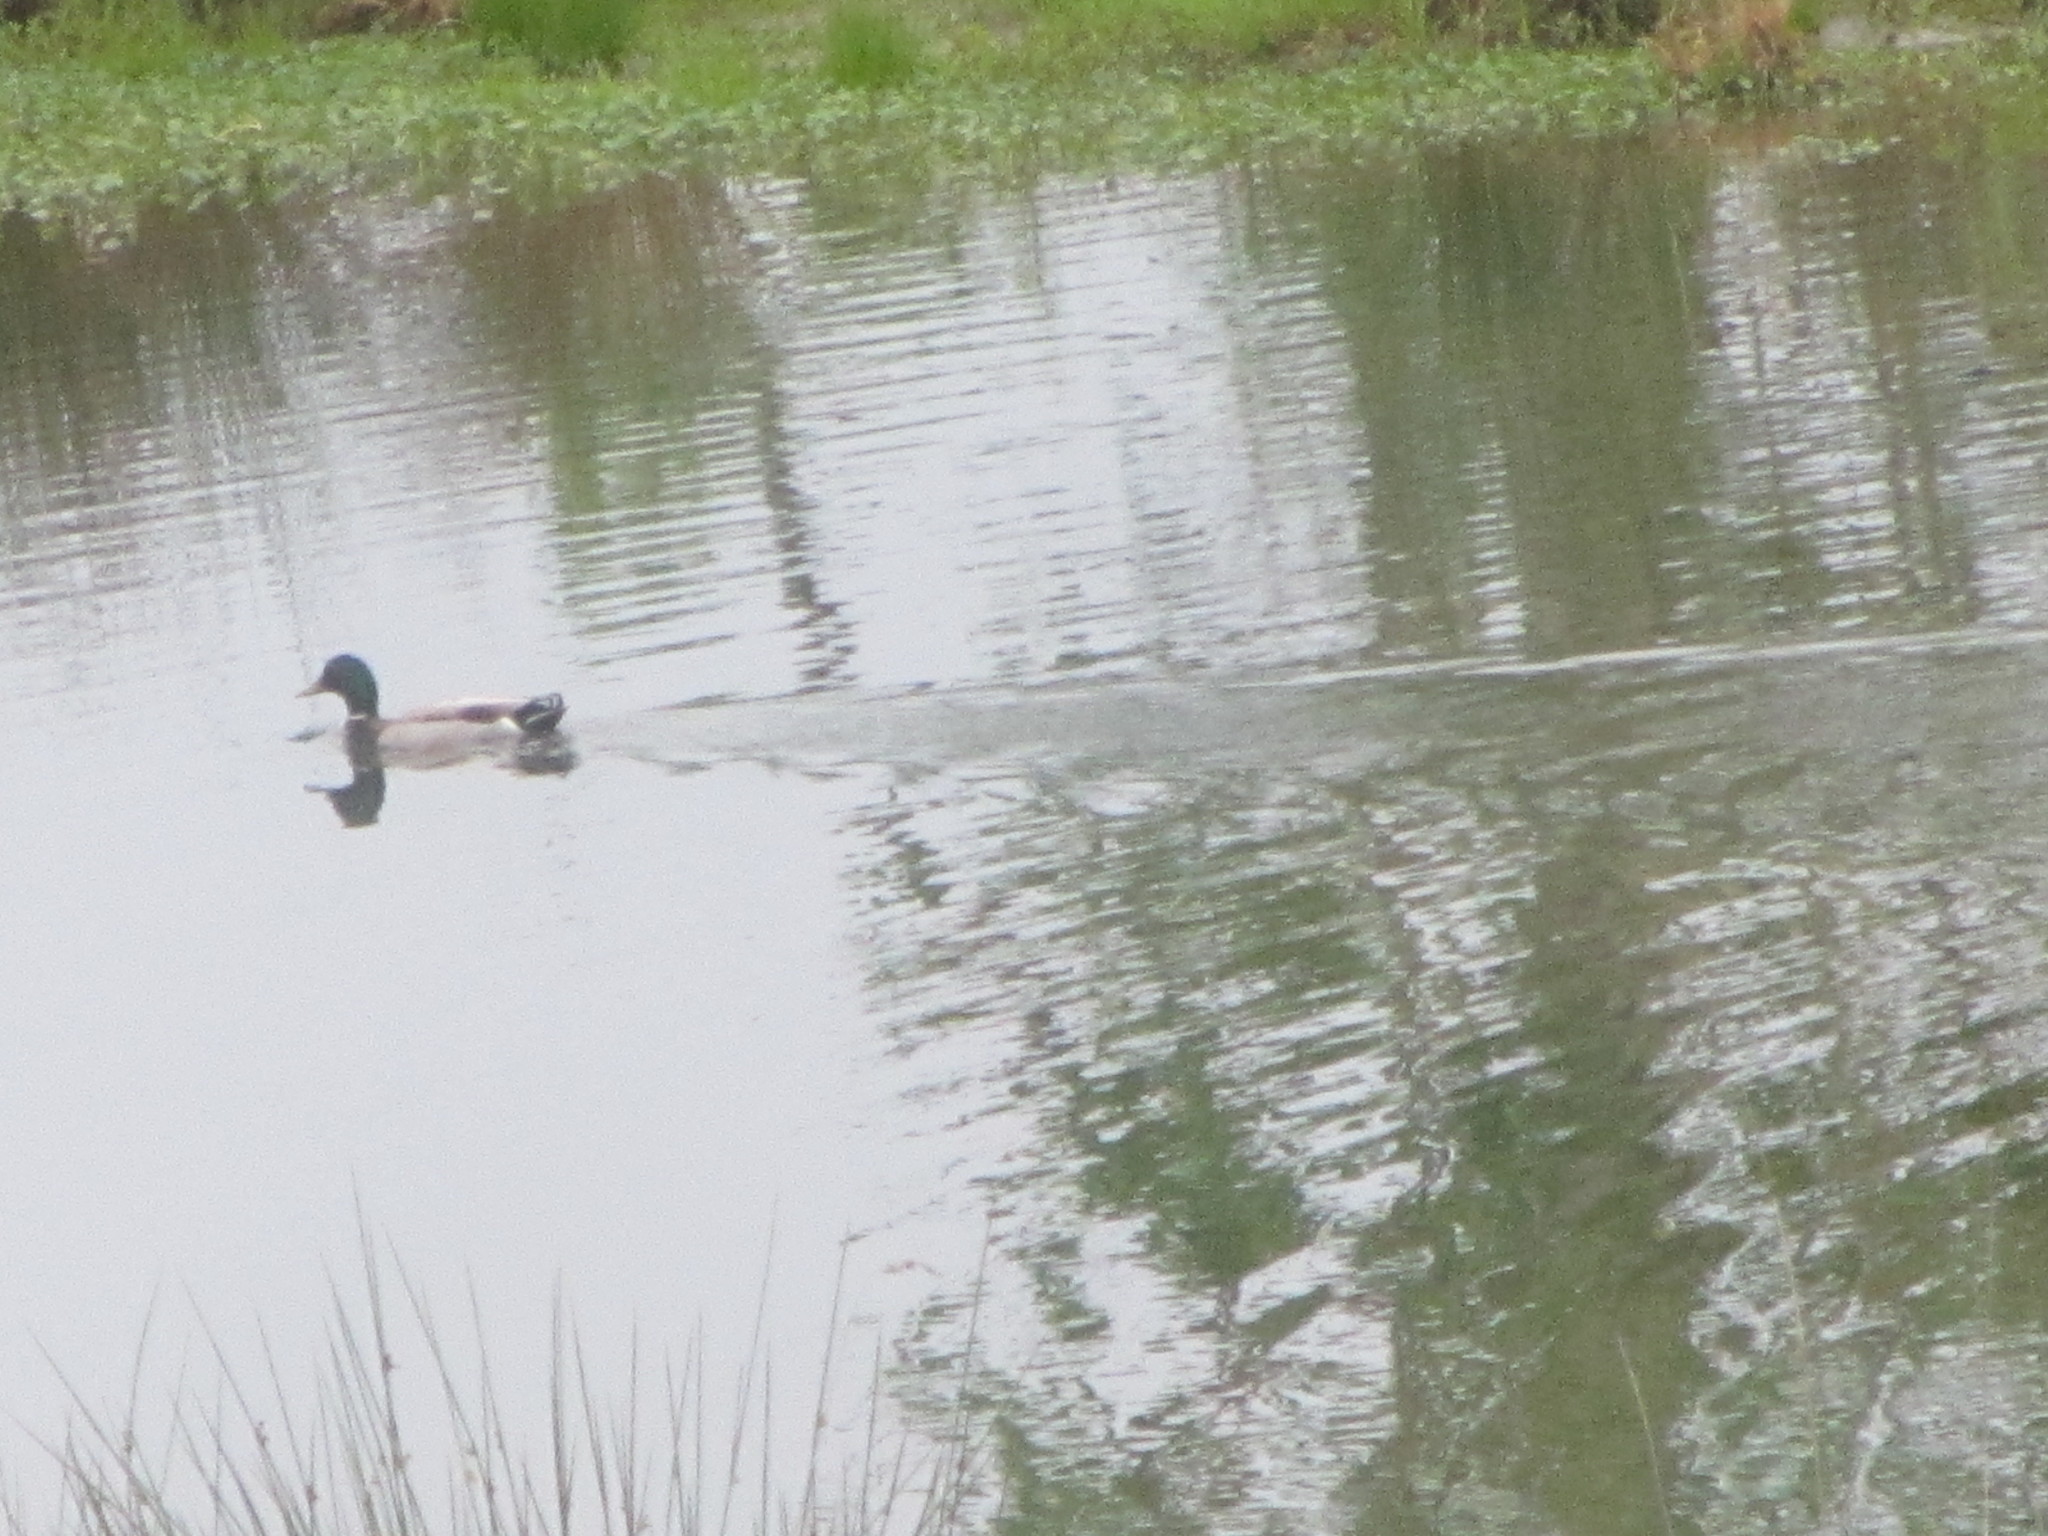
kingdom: Animalia
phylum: Chordata
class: Aves
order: Anseriformes
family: Anatidae
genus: Anas
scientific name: Anas platyrhynchos
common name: Mallard
